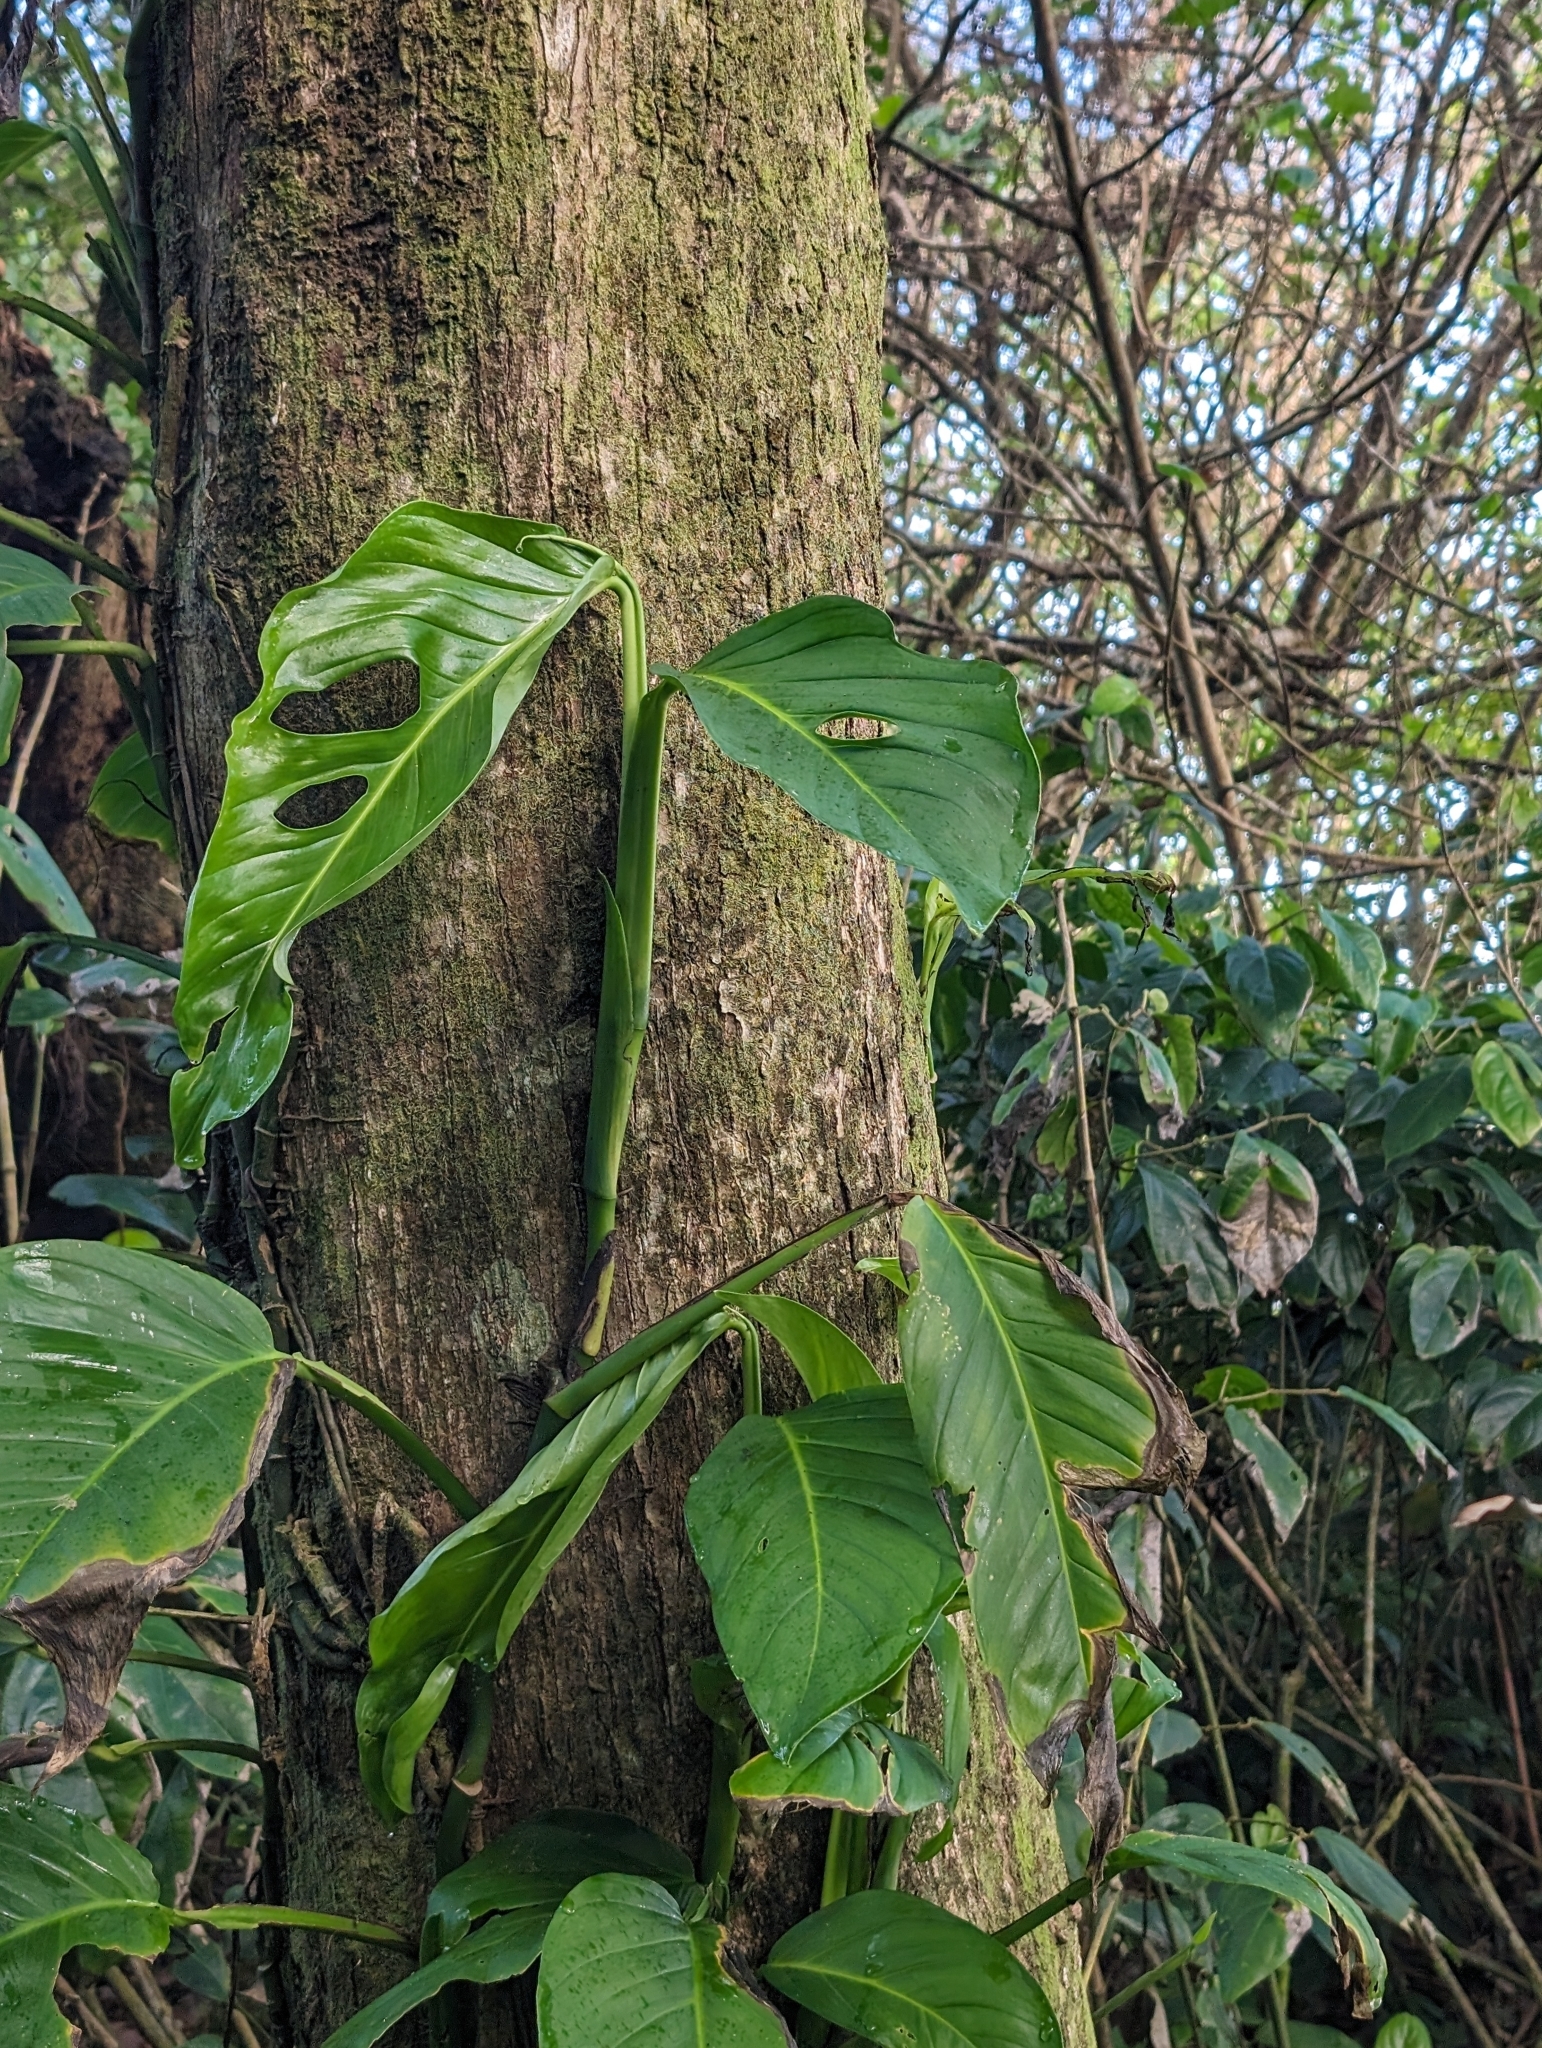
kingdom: Plantae
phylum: Tracheophyta
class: Liliopsida
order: Alismatales
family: Araceae
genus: Monstera
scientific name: Monstera adansonii
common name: Tarovine
